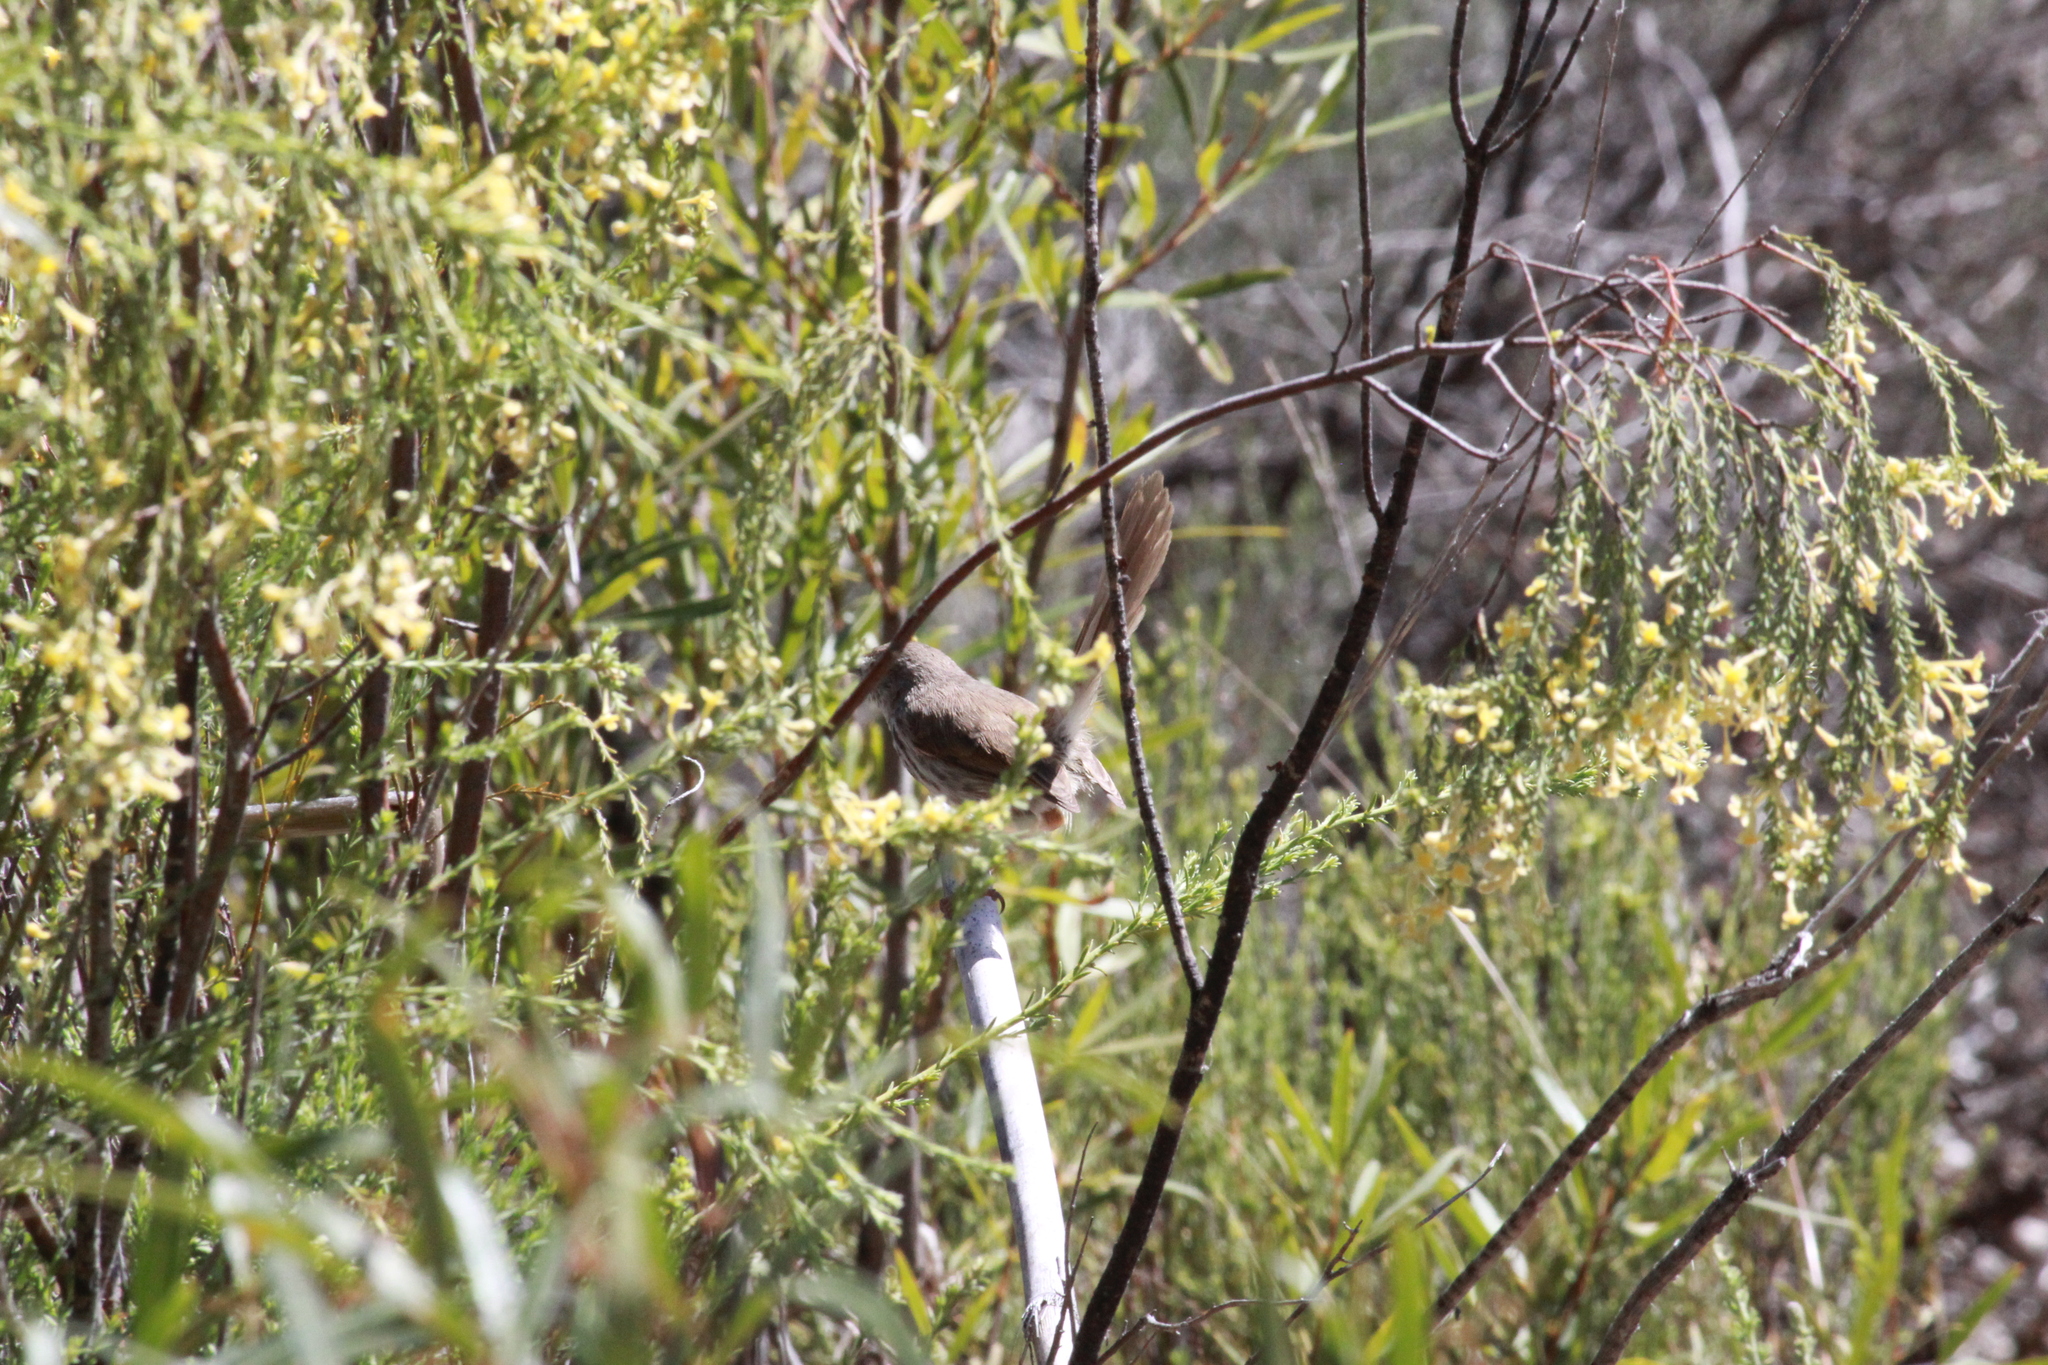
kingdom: Animalia
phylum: Chordata
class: Aves
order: Passeriformes
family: Cisticolidae
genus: Prinia
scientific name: Prinia maculosa
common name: Karoo prinia
